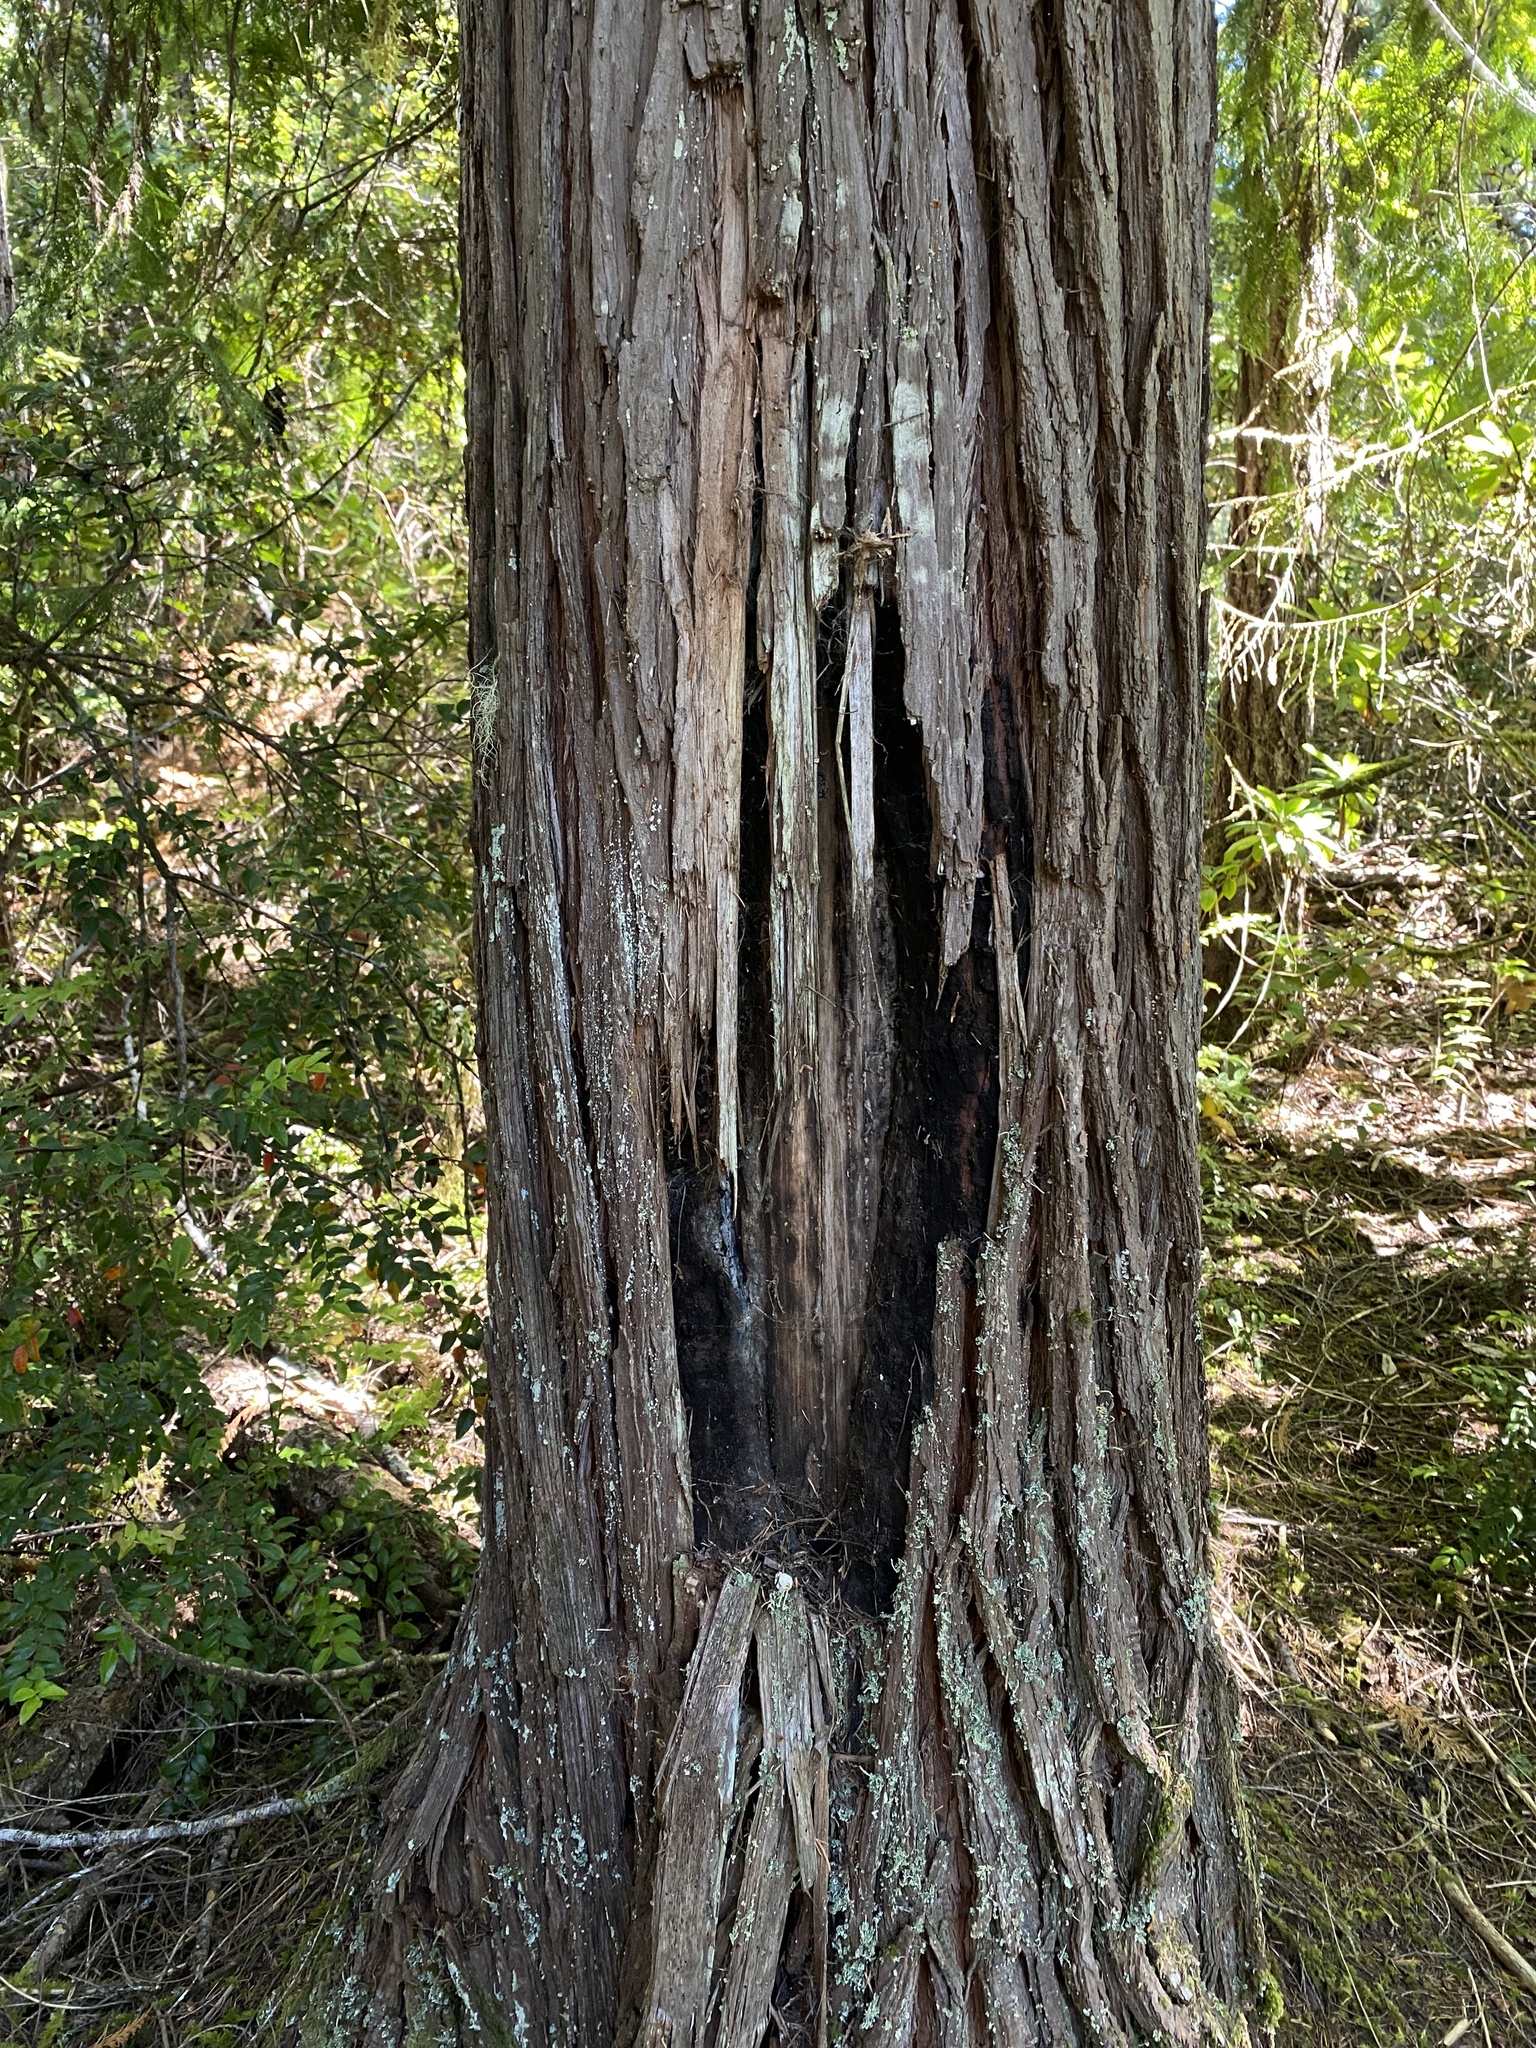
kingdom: Plantae
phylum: Tracheophyta
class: Pinopsida
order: Pinales
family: Cupressaceae
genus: Chamaecyparis
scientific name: Chamaecyparis lawsoniana
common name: Lawson's cypress
